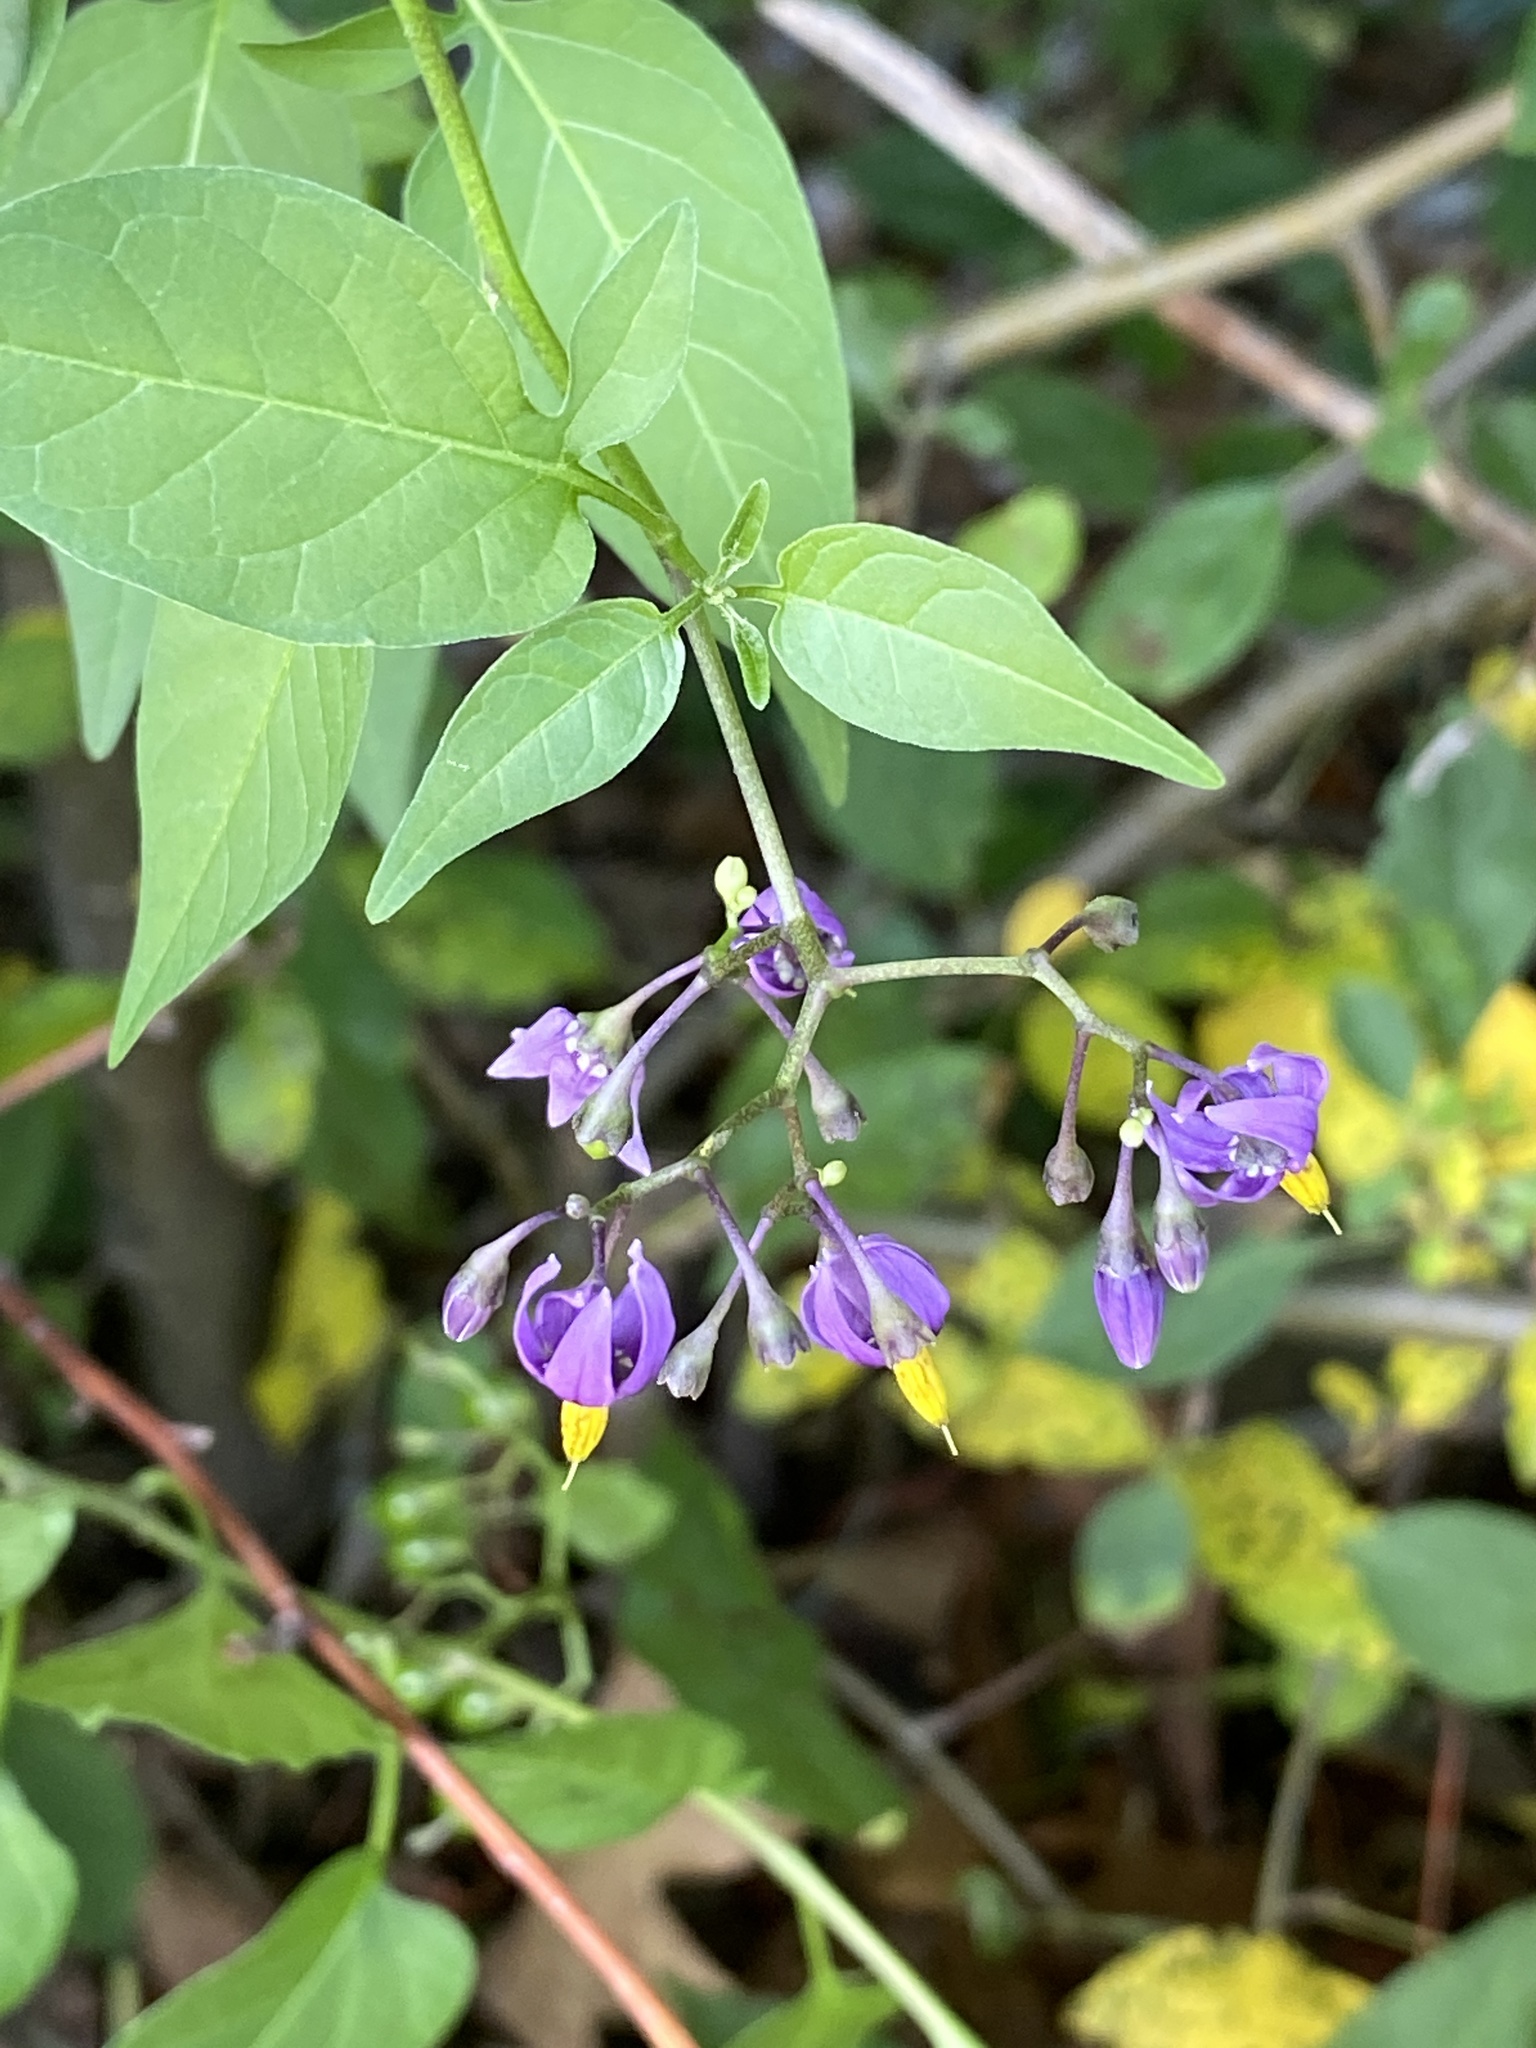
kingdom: Plantae
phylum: Tracheophyta
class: Magnoliopsida
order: Solanales
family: Solanaceae
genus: Solanum
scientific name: Solanum dulcamara
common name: Climbing nightshade
